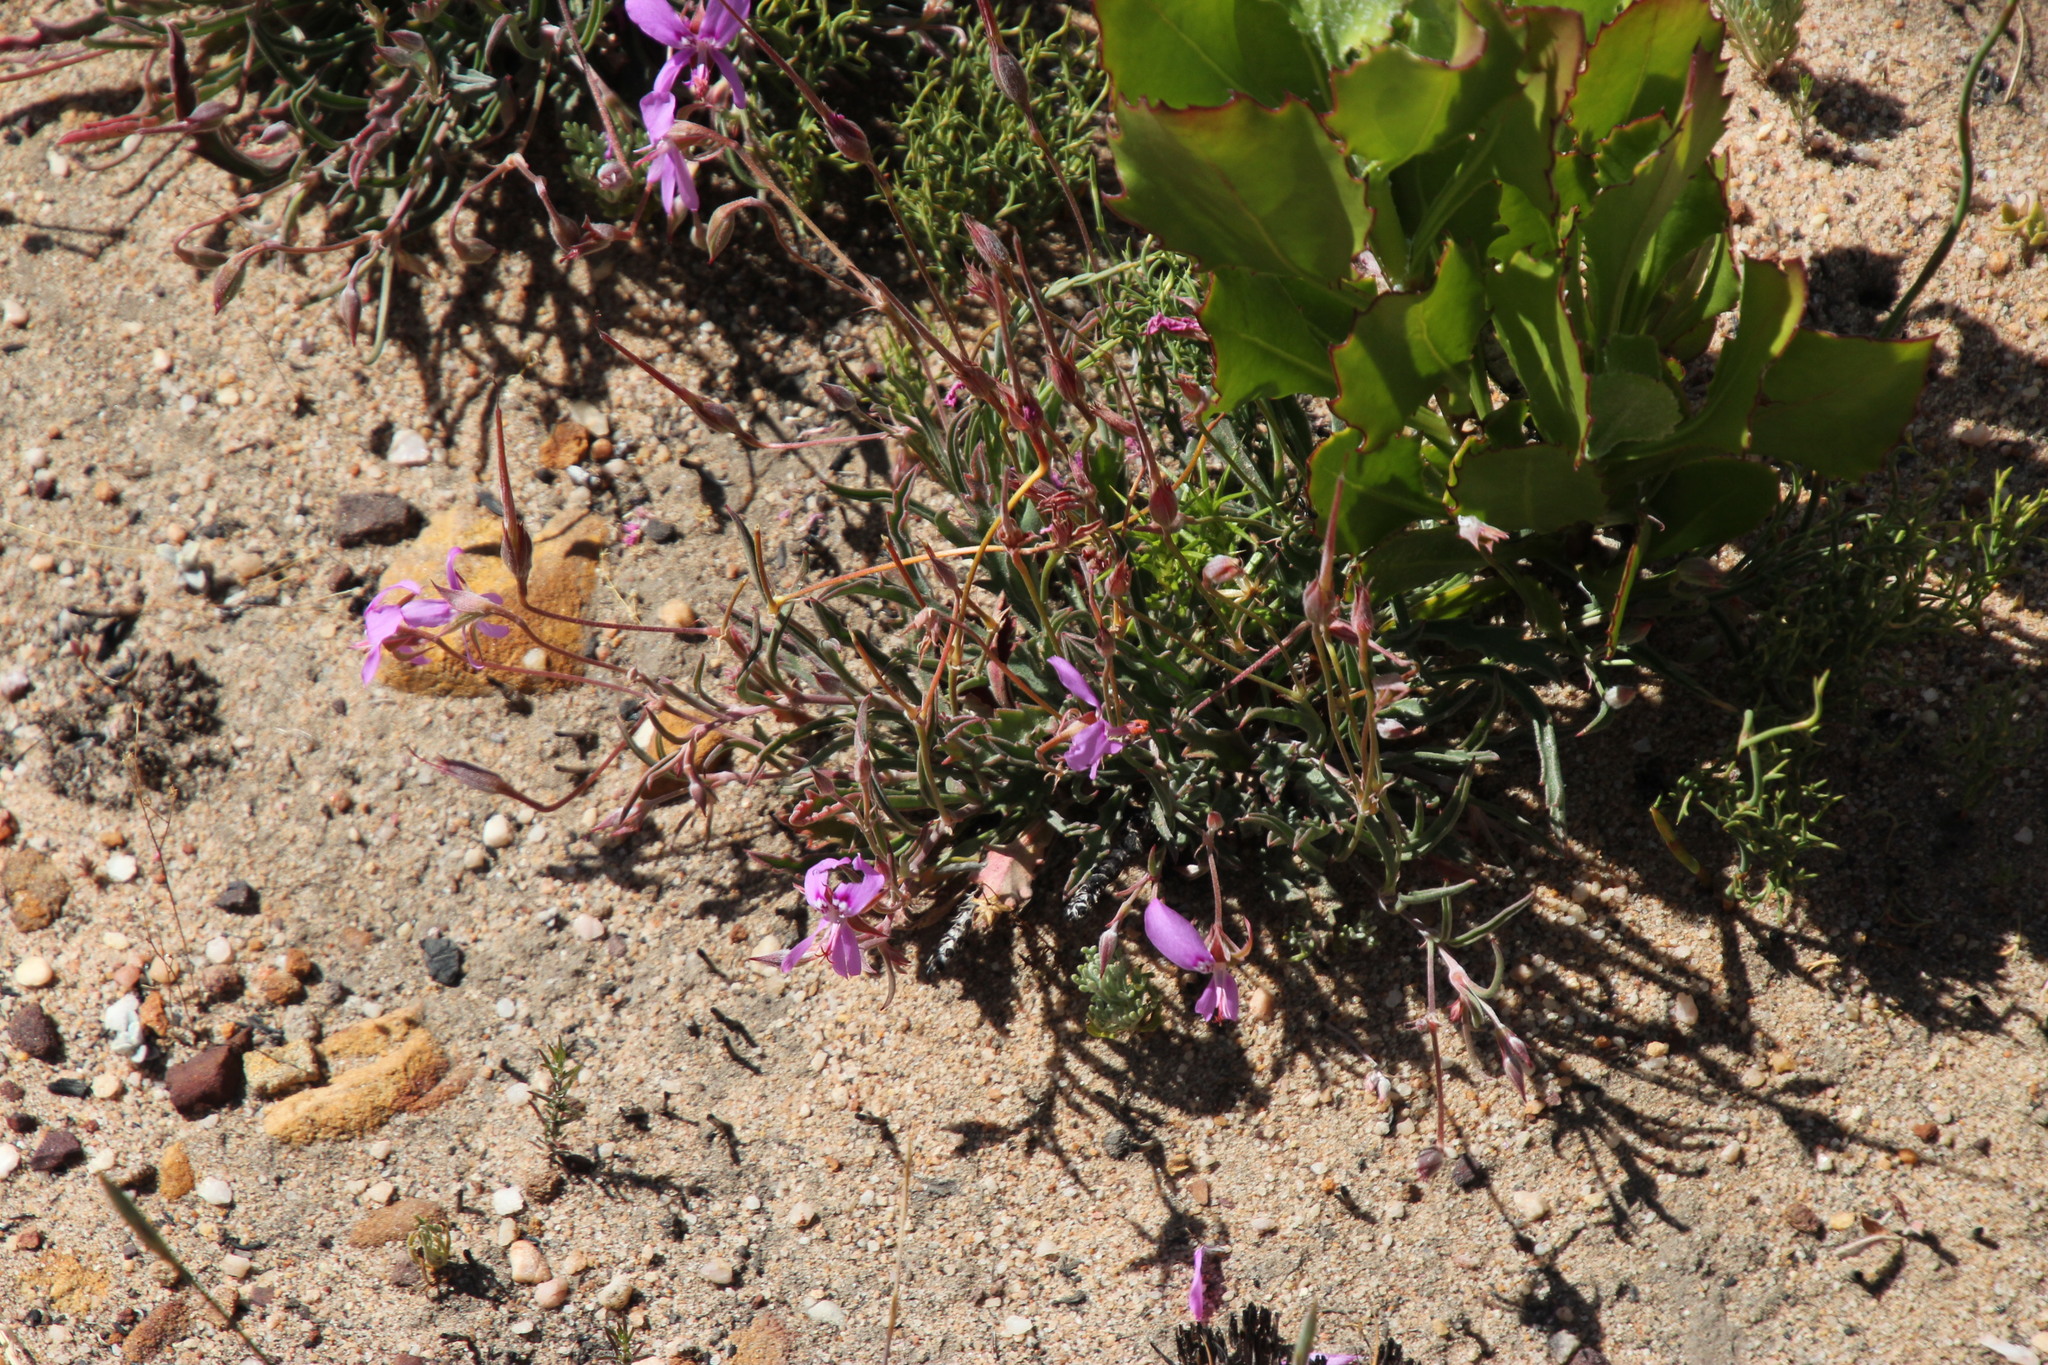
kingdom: Plantae
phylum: Tracheophyta
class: Magnoliopsida
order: Geraniales
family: Geraniaceae
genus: Pelargonium
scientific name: Pelargonium coronopifolium
